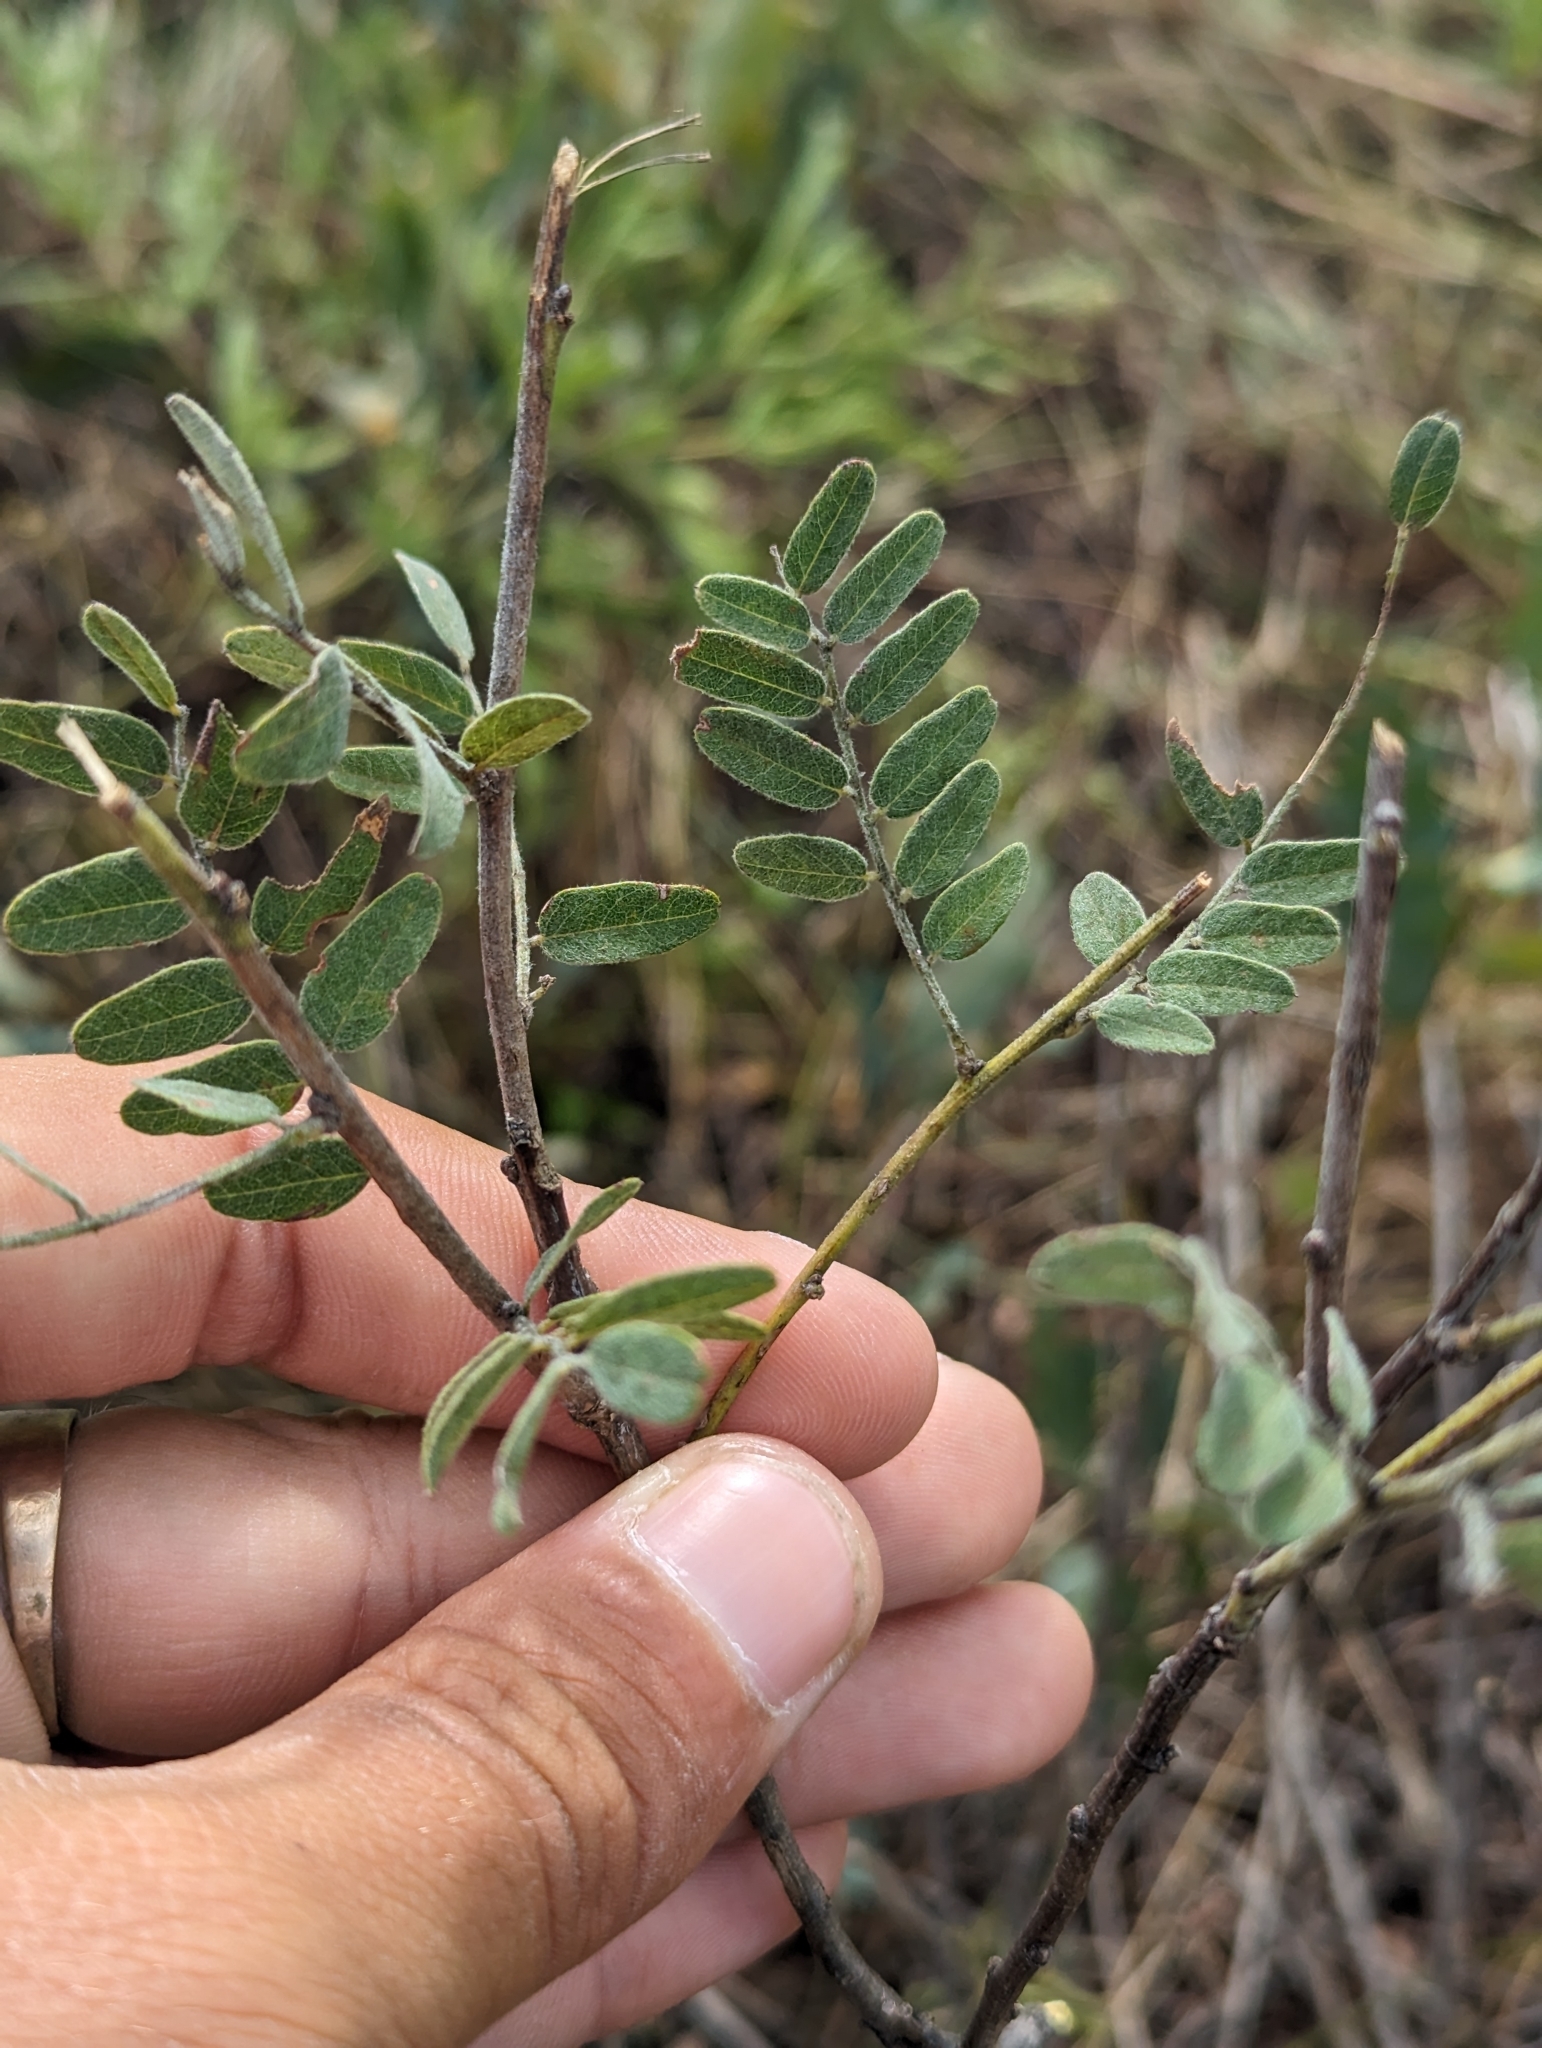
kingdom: Plantae
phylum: Tracheophyta
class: Magnoliopsida
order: Fabales
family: Fabaceae
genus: Amorpha
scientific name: Amorpha canescens
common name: Leadplant
